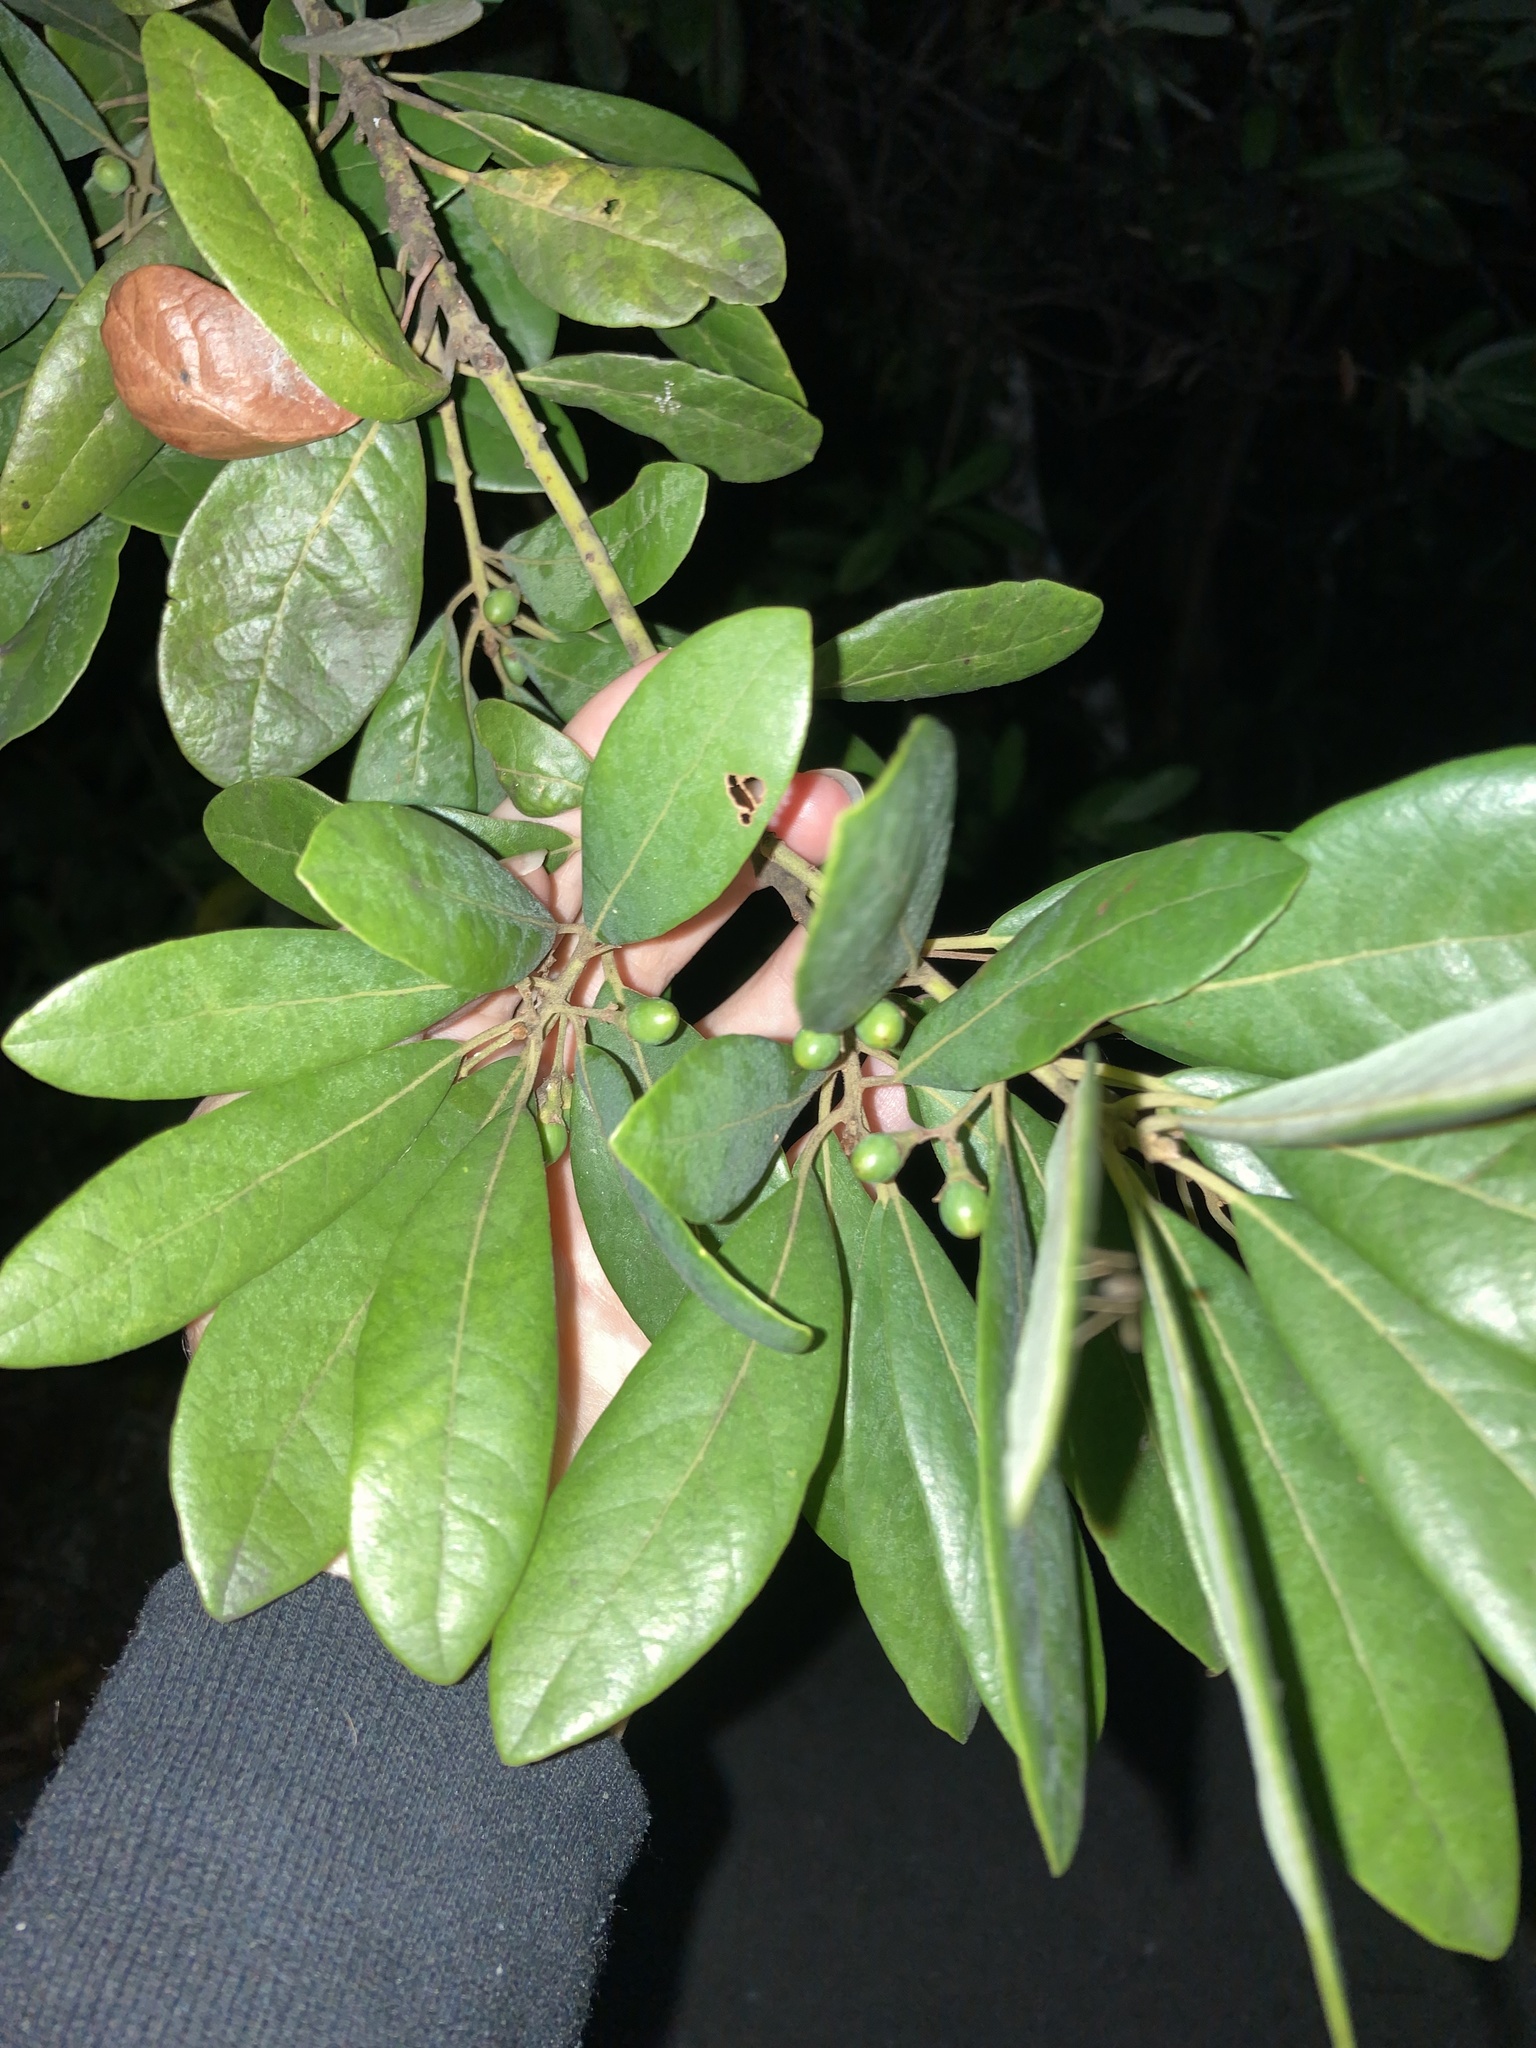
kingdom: Plantae
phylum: Tracheophyta
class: Magnoliopsida
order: Laurales
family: Lauraceae
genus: Persea
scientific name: Persea borbonia
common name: Redbay
